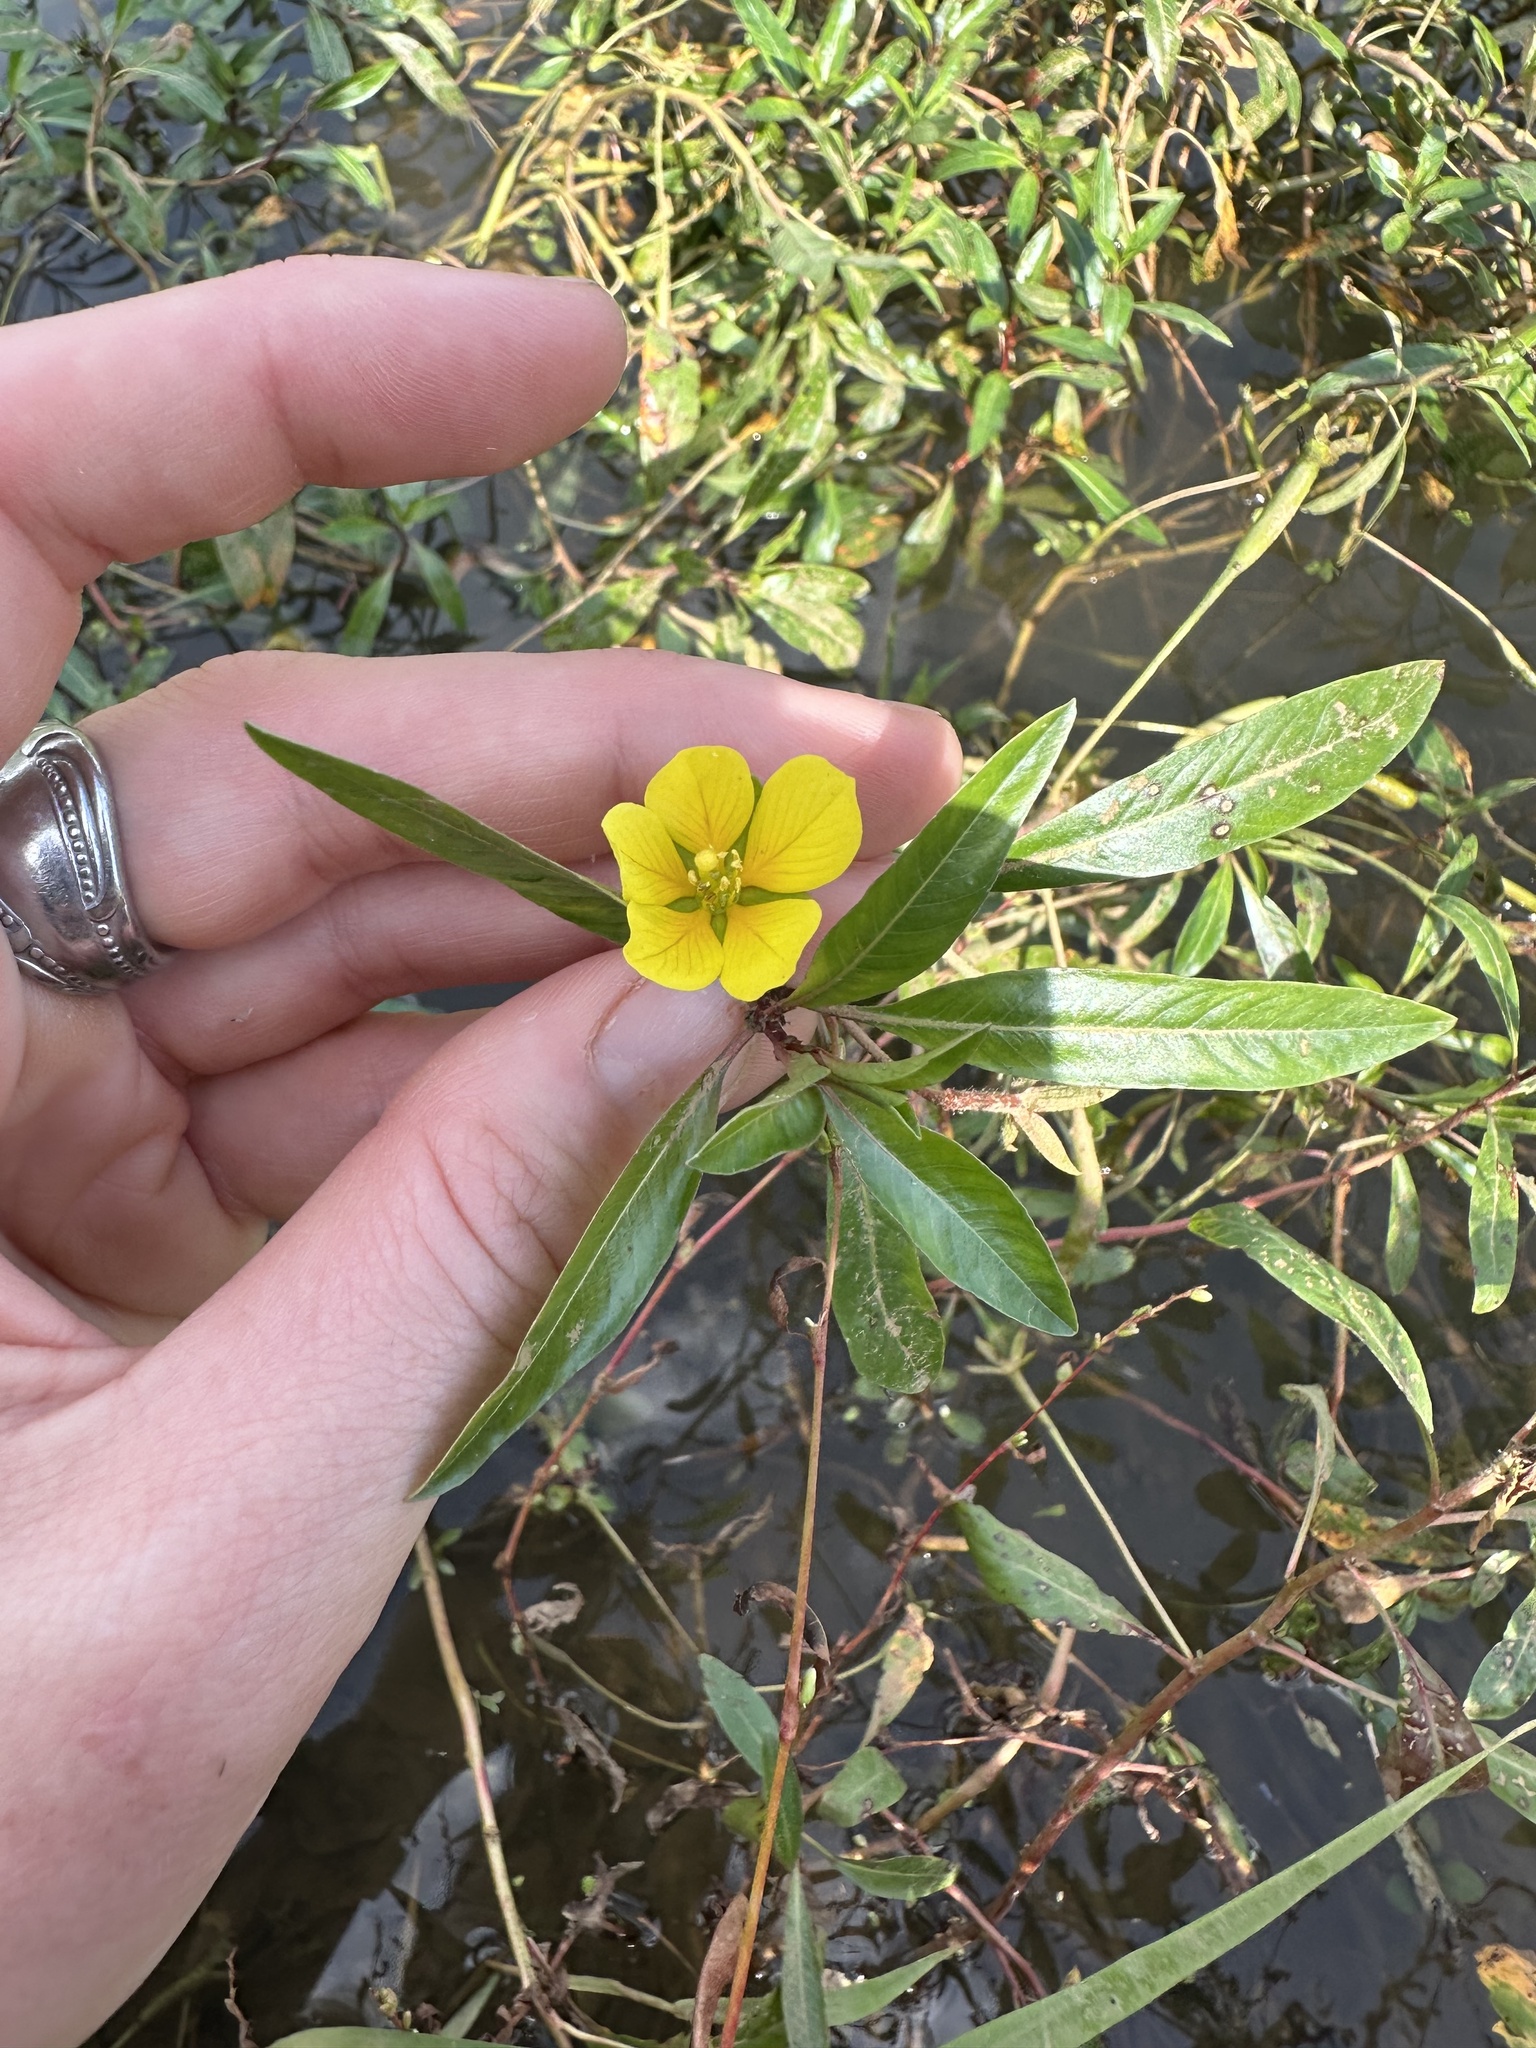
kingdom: Plantae
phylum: Tracheophyta
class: Magnoliopsida
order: Myrtales
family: Onagraceae
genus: Ludwigia
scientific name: Ludwigia peploides
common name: Floating primrose-willow
